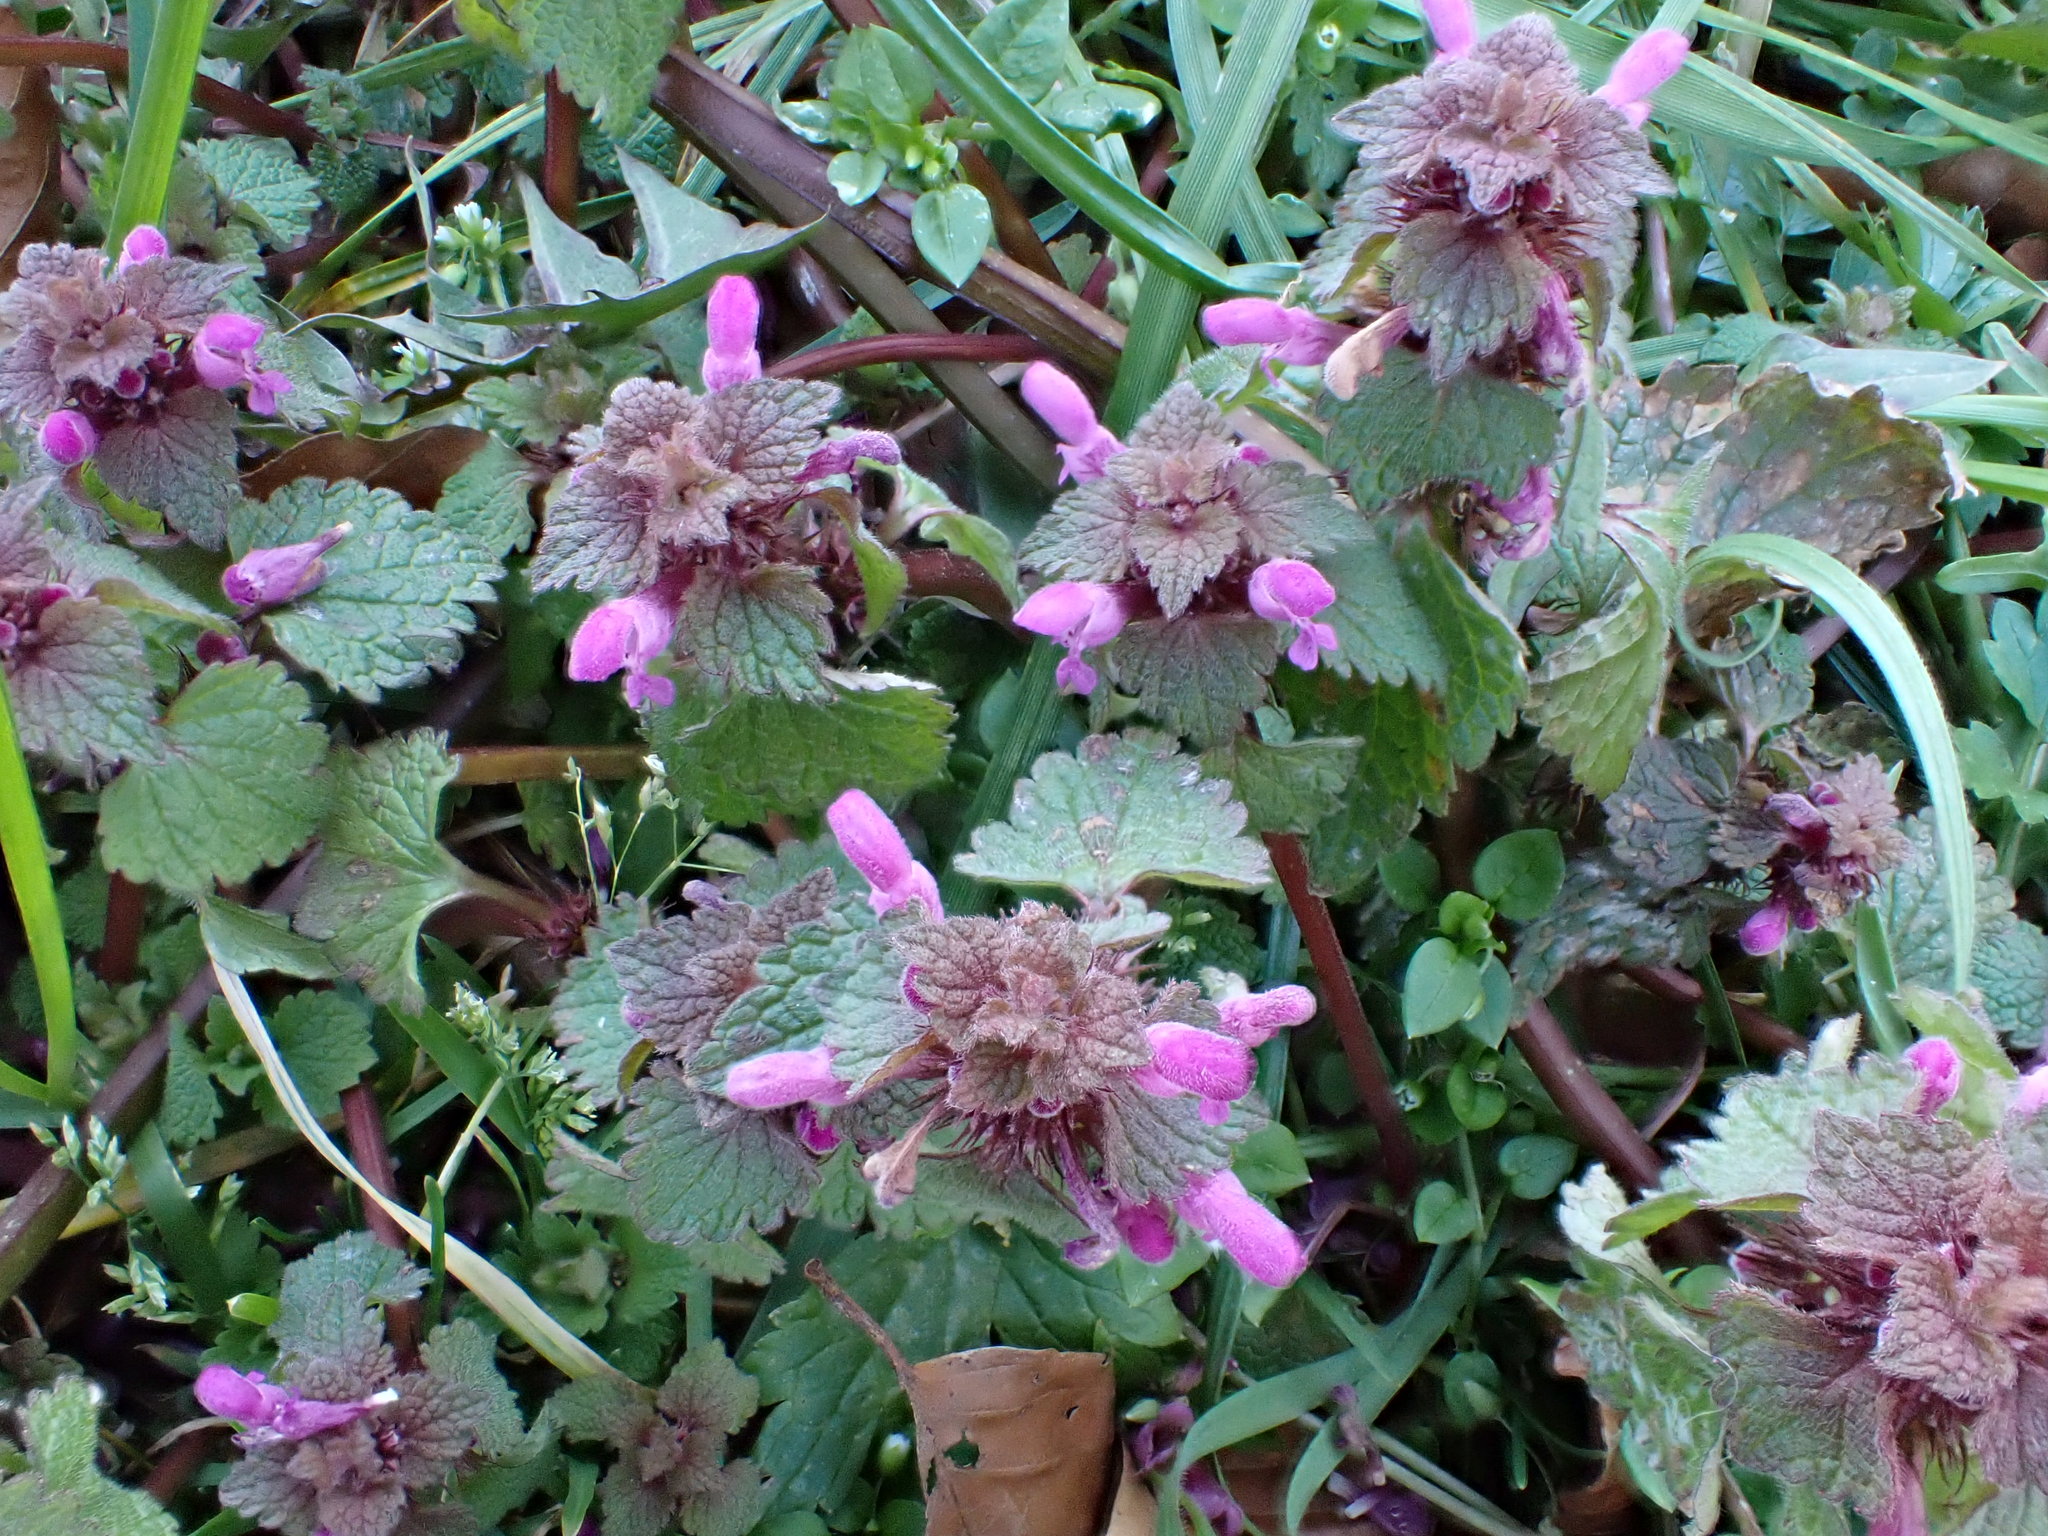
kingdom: Plantae
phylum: Tracheophyta
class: Magnoliopsida
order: Lamiales
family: Lamiaceae
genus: Lamium
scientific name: Lamium purpureum
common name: Red dead-nettle
